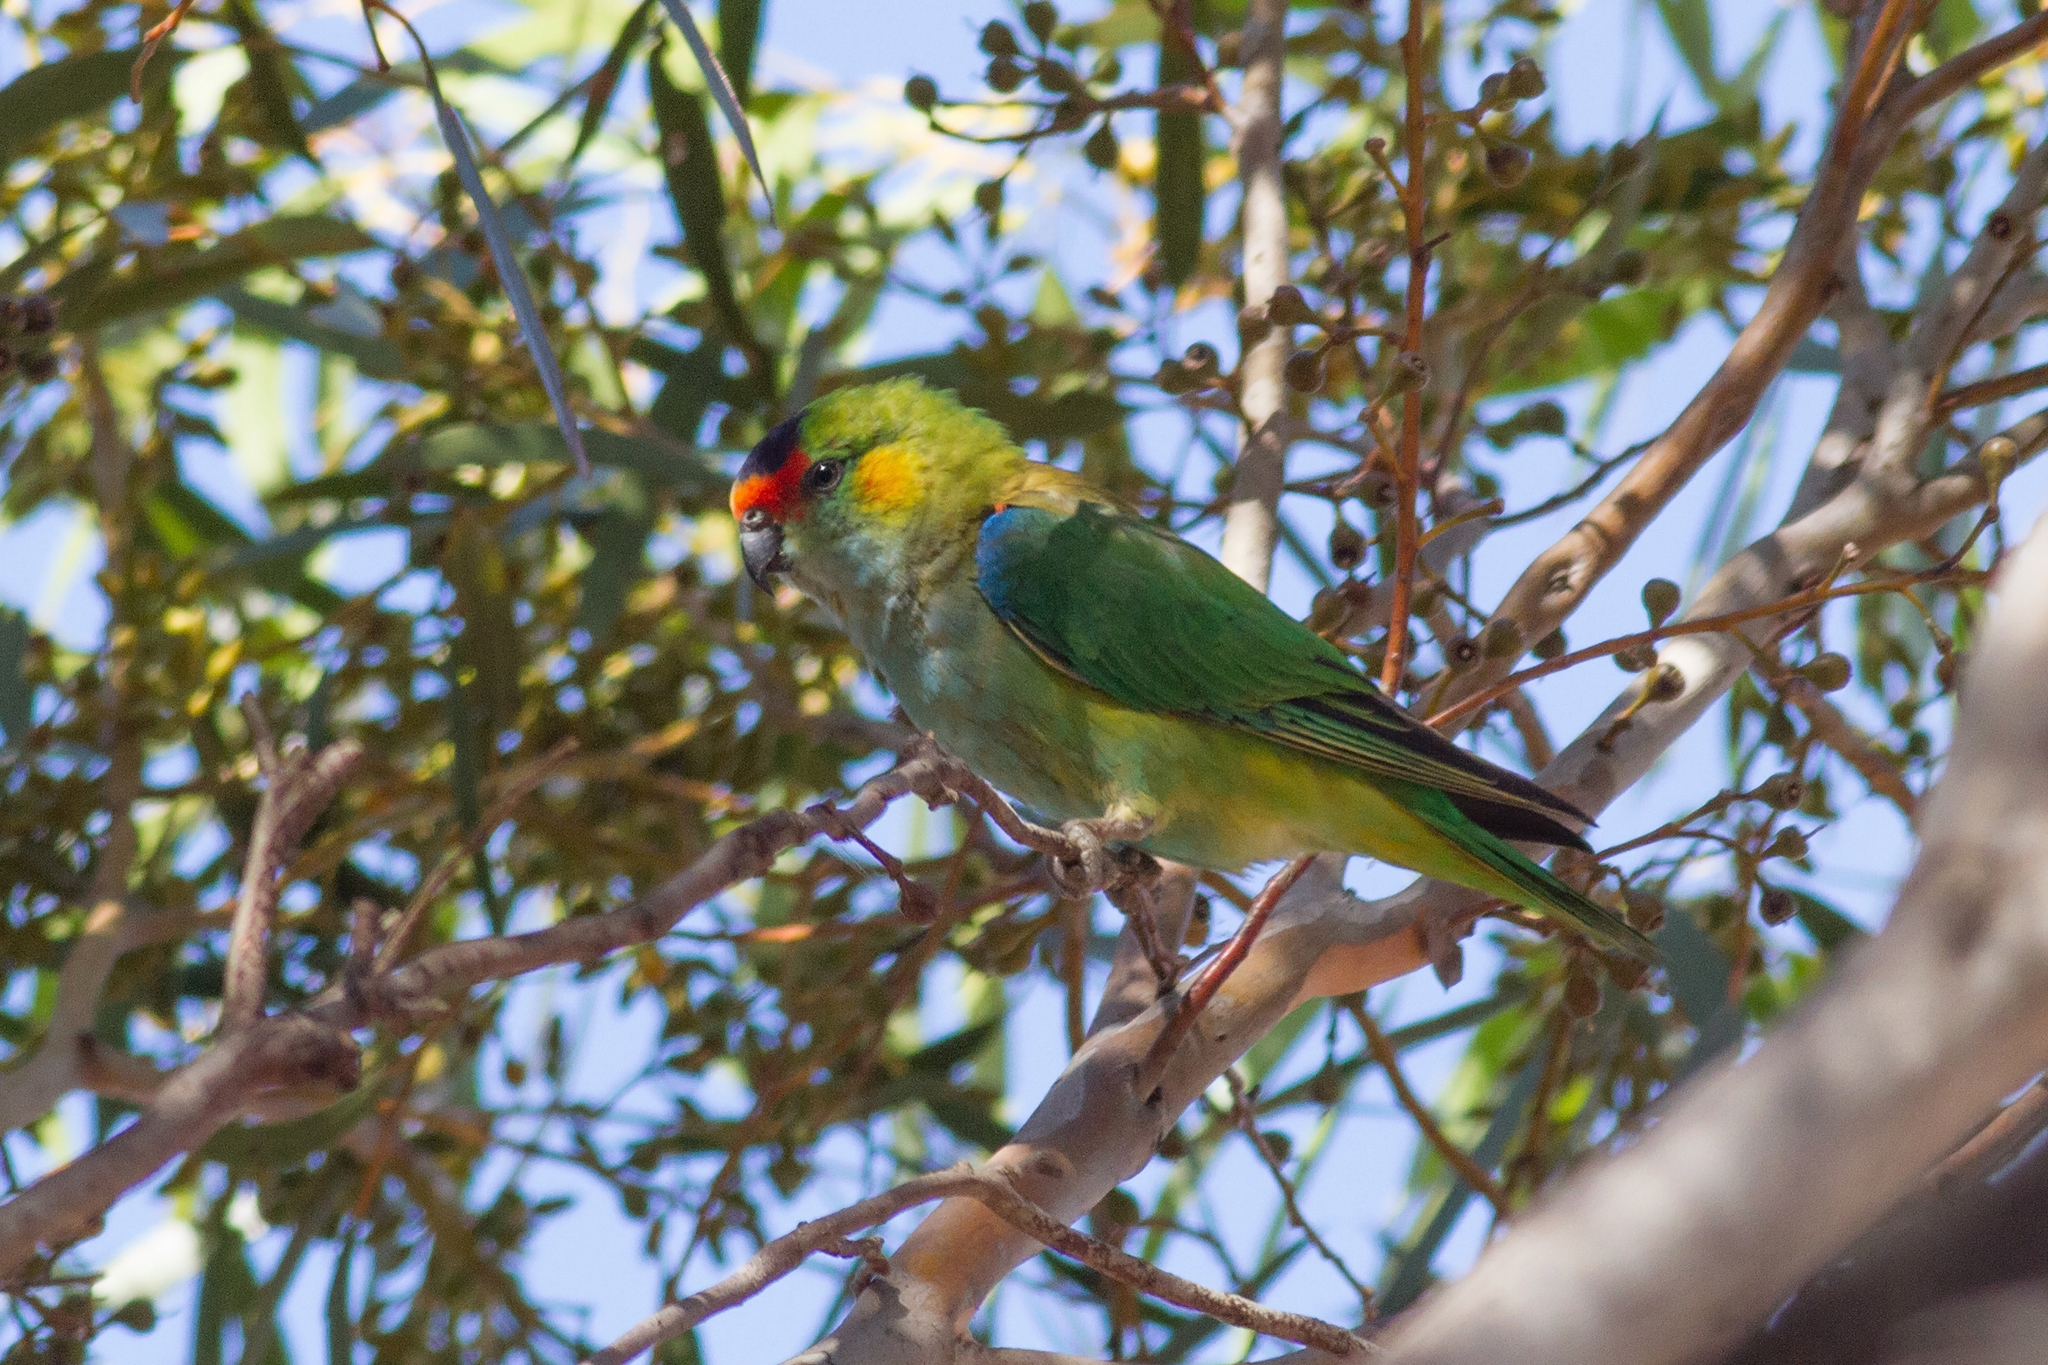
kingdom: Animalia
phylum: Chordata
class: Aves
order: Psittaciformes
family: Psittaculidae
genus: Parvipsitta
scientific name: Parvipsitta porphyrocephala
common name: Purple-crowned lorikeet
